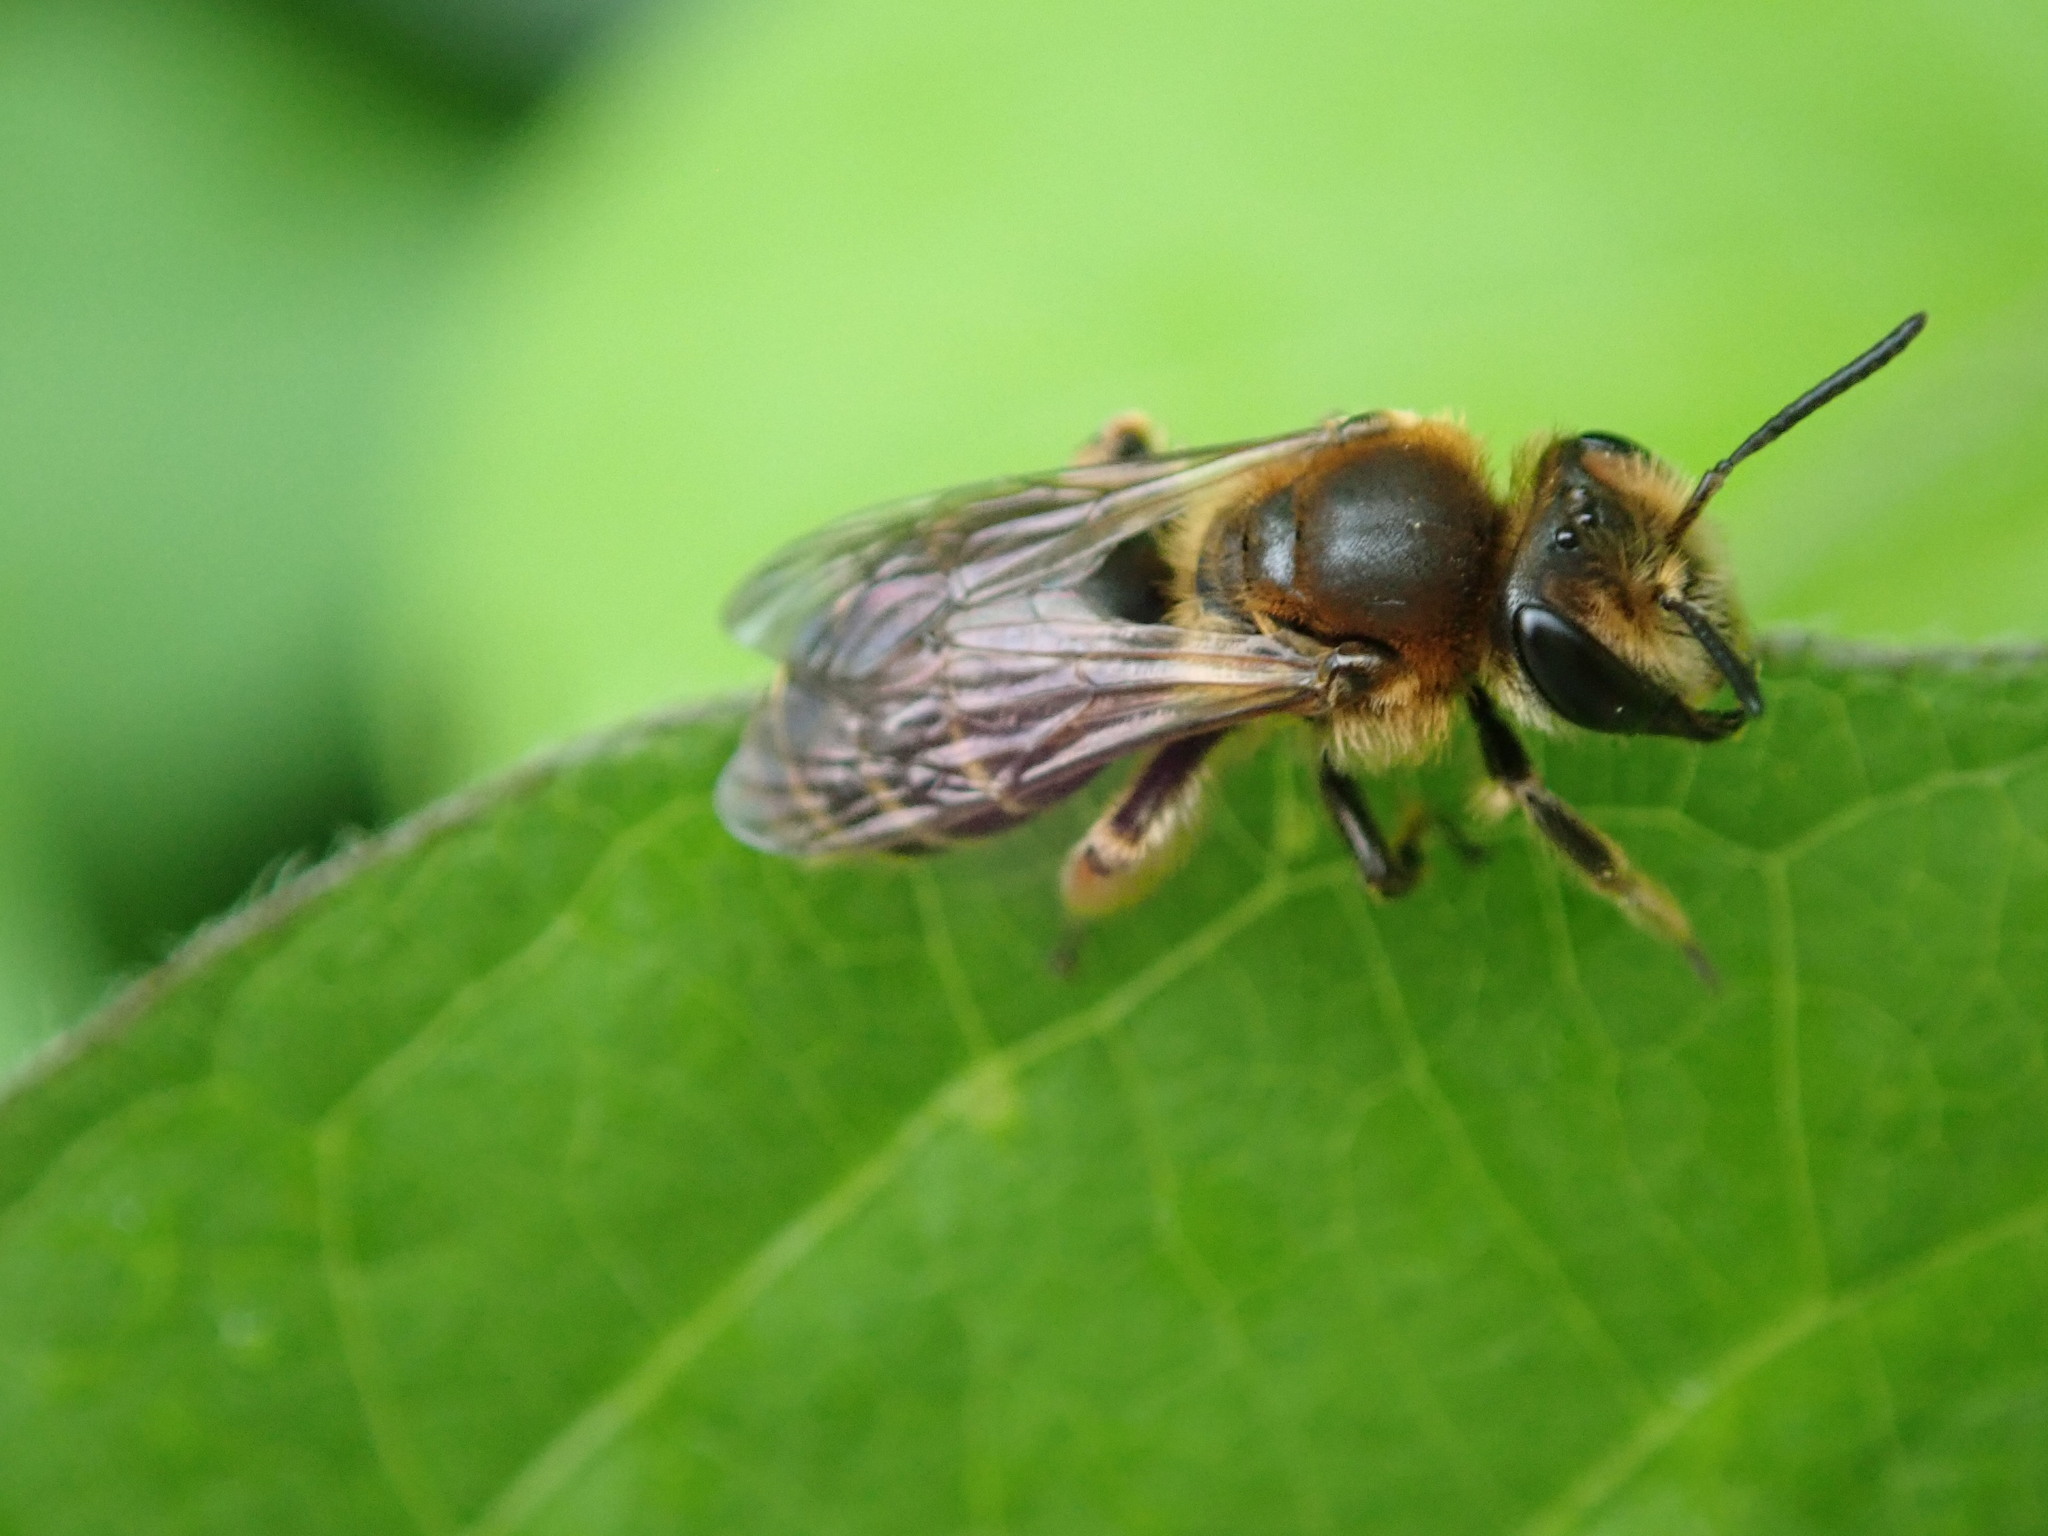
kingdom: Animalia
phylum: Arthropoda
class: Insecta
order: Hymenoptera
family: Andrenidae
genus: Andrena
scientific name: Andrena wilkella
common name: Wilke's mining bee
